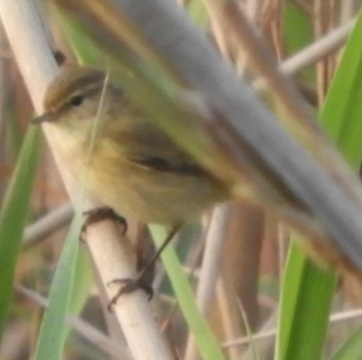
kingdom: Animalia
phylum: Chordata
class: Aves
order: Passeriformes
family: Phylloscopidae
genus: Phylloscopus
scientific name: Phylloscopus collybita
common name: Common chiffchaff
